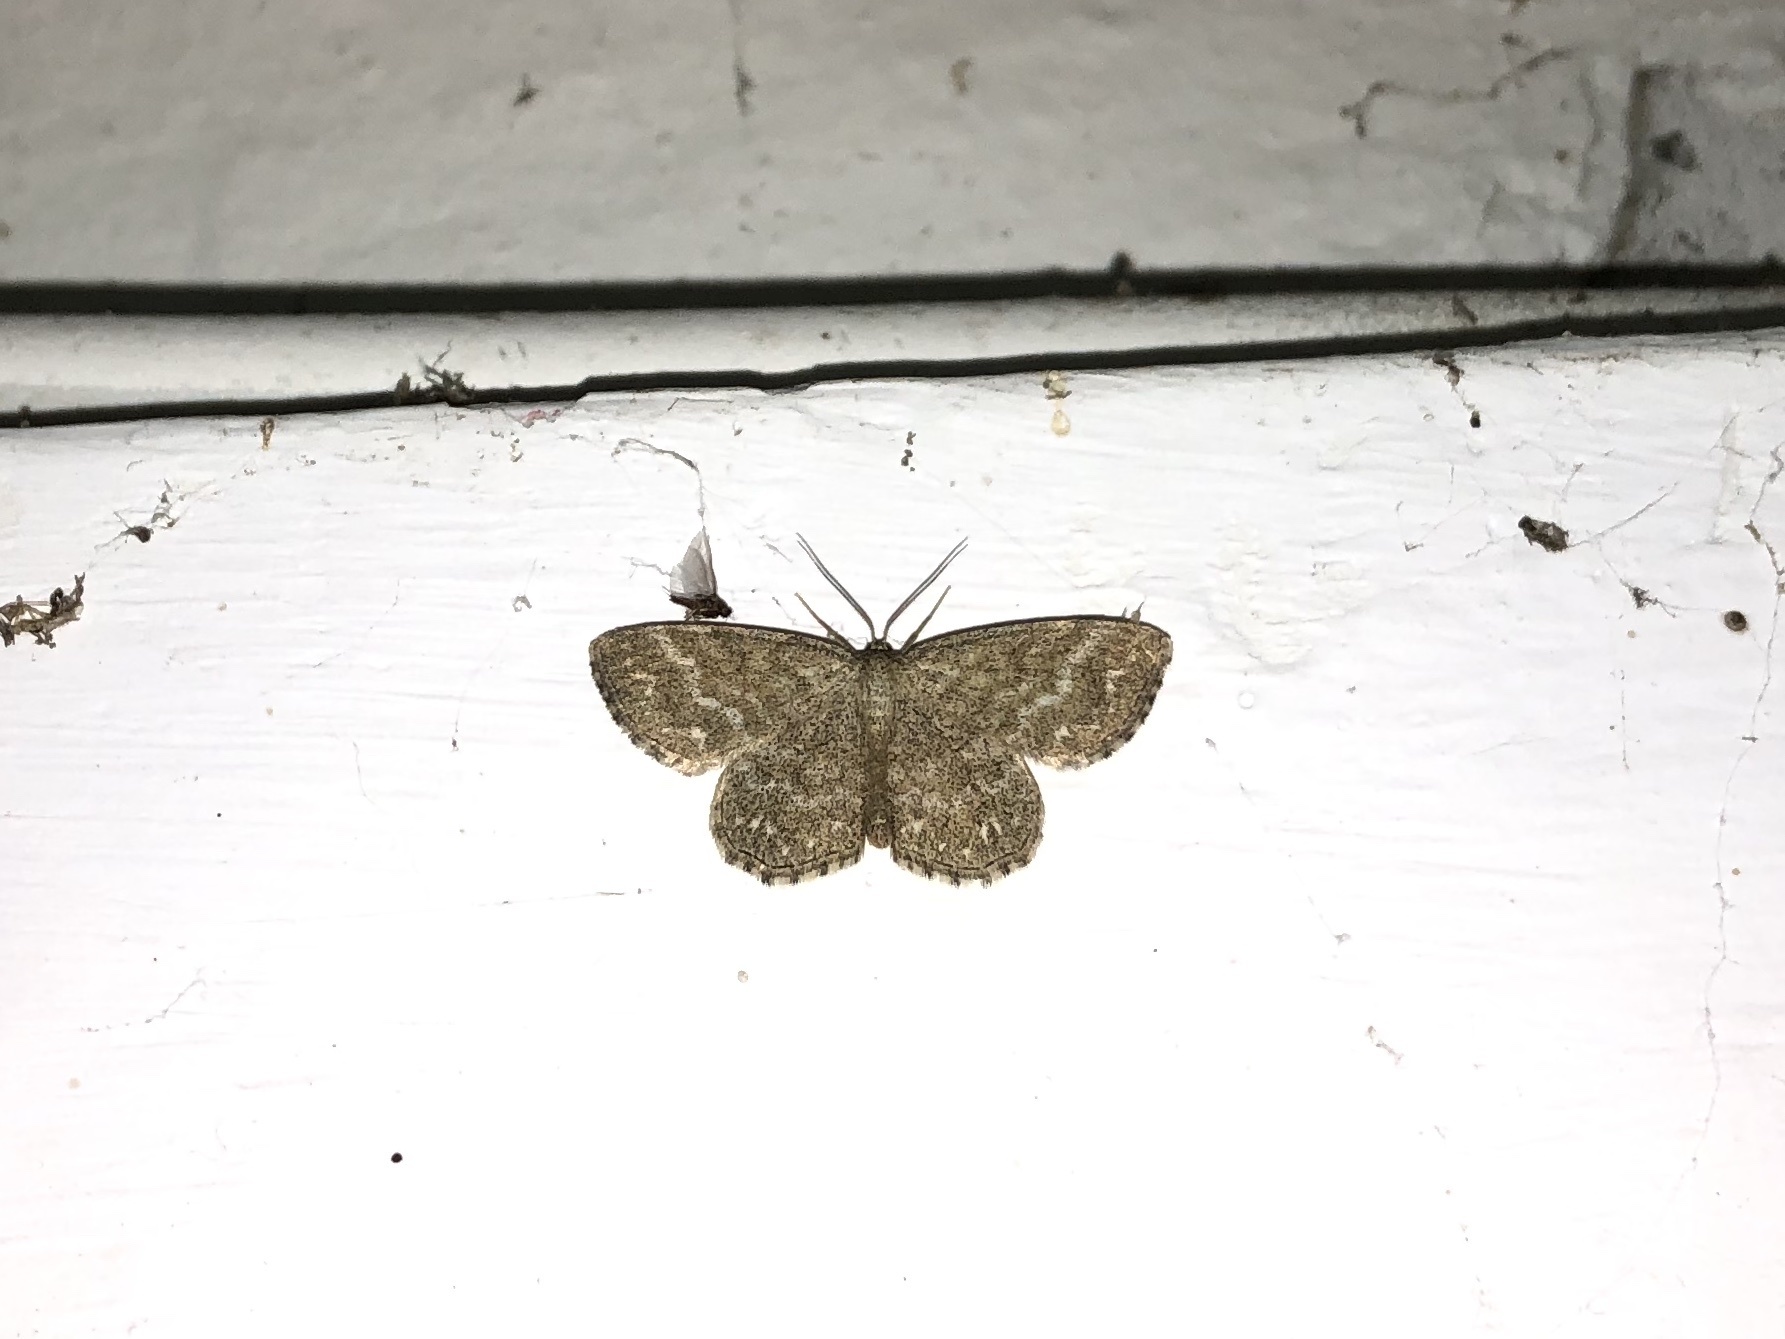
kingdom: Animalia
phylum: Arthropoda
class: Insecta
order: Lepidoptera
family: Geometridae
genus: Scopula
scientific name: Scopula immorata
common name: Lewes wave
